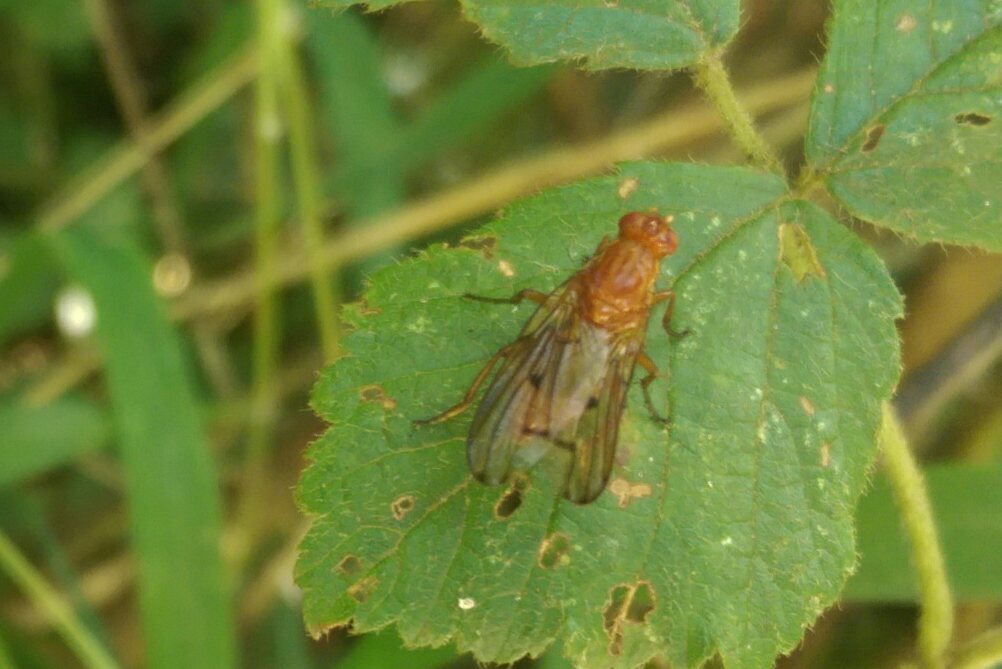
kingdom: Animalia
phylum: Arthropoda
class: Insecta
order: Diptera
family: Dryomyzidae
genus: Dryomyza
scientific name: Dryomyza anilis
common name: Marsh fly
